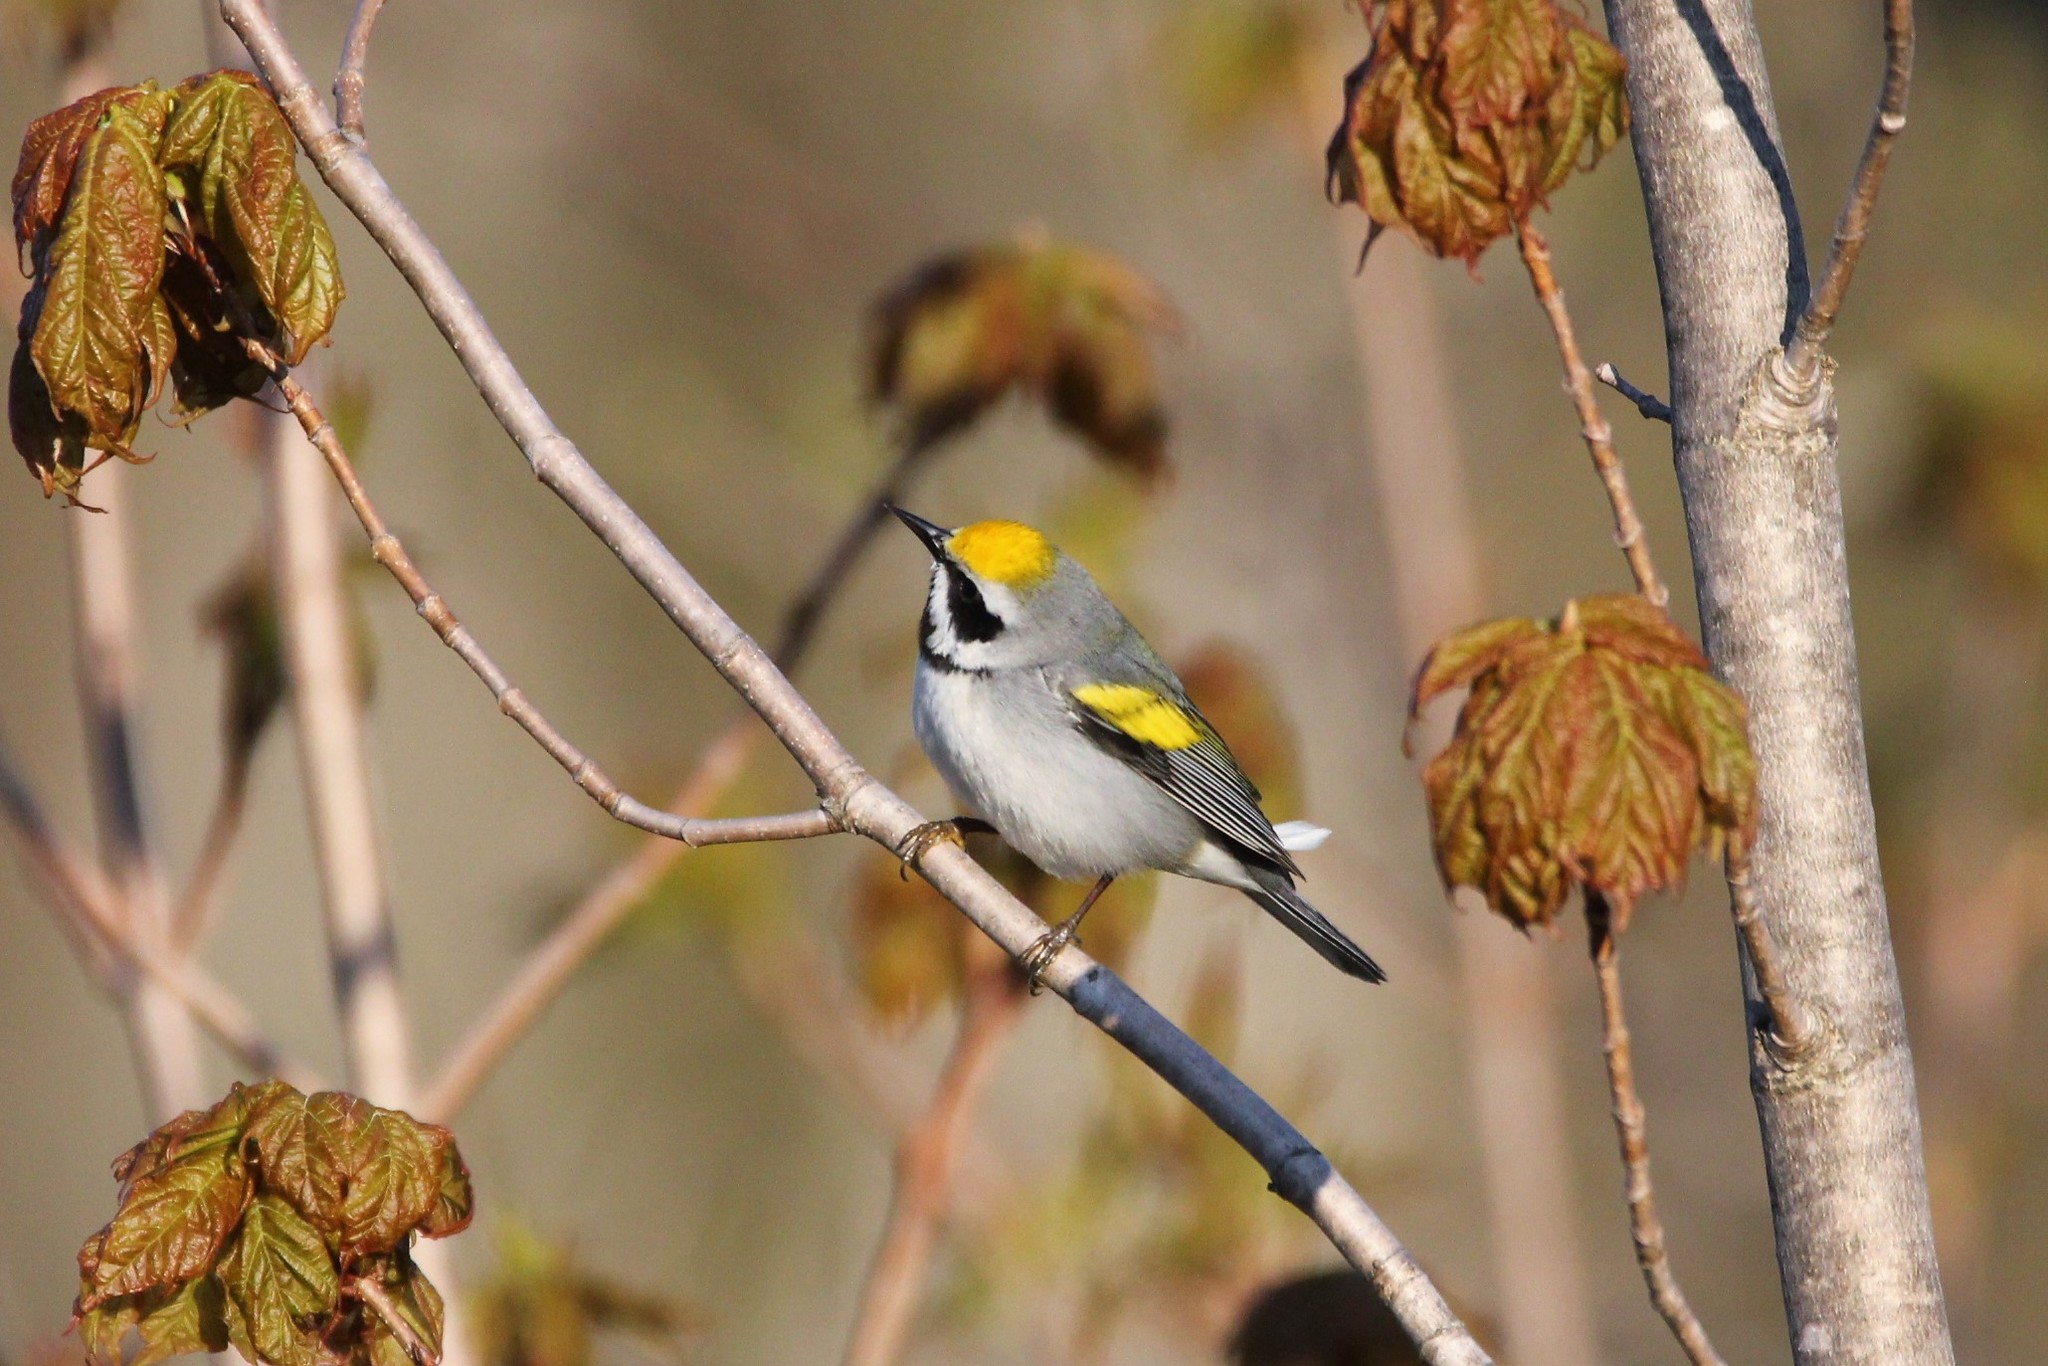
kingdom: Animalia
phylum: Chordata
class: Aves
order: Passeriformes
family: Parulidae
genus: Vermivora
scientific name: Vermivora chrysoptera
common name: Golden-winged warbler
